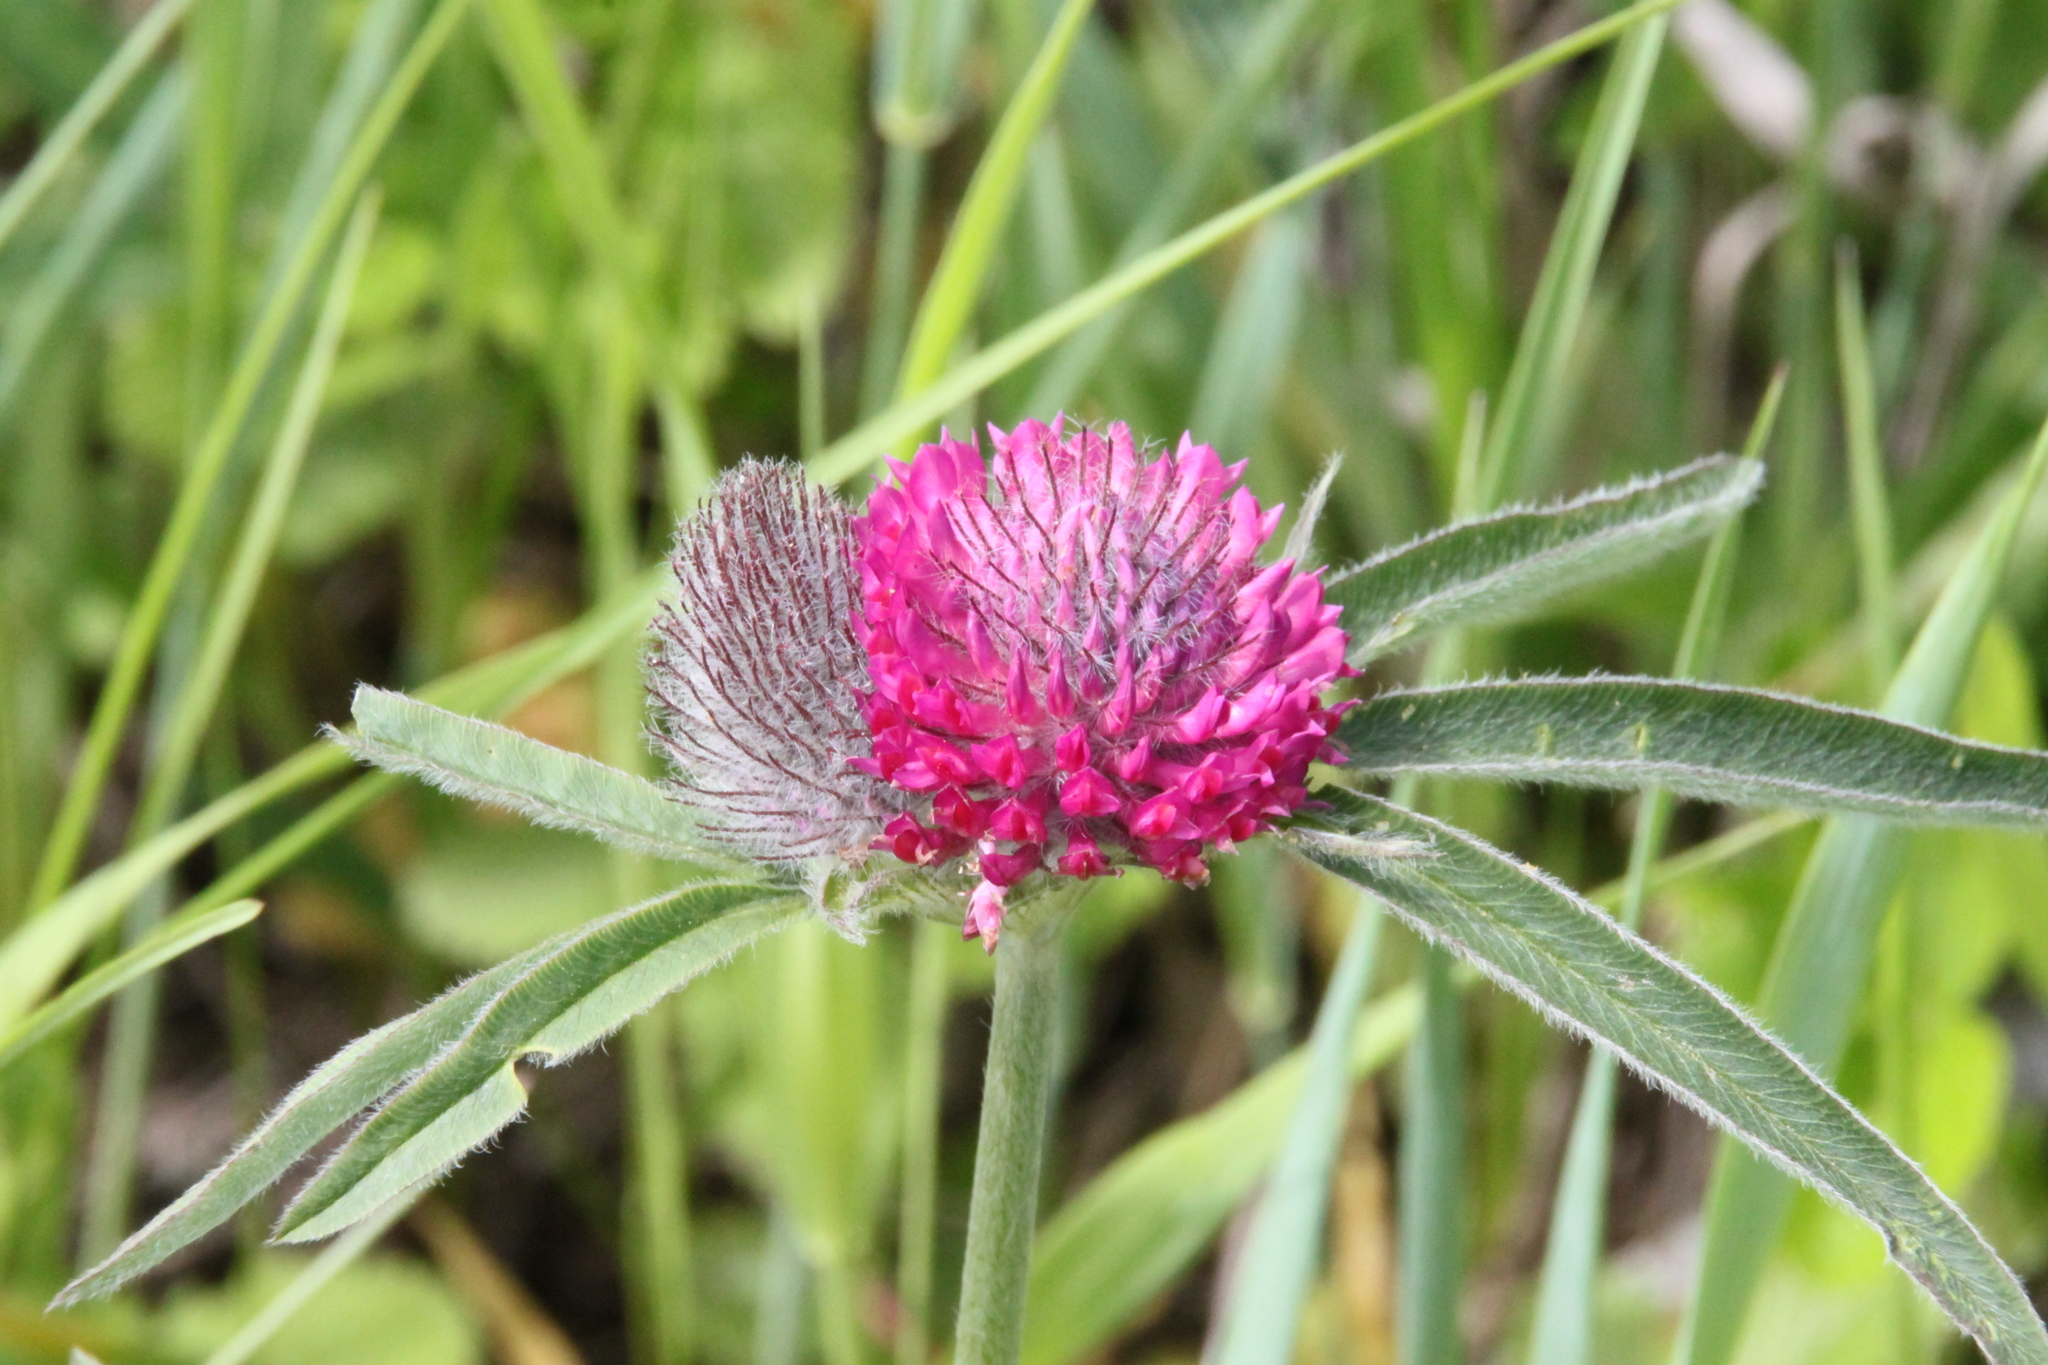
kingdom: Plantae
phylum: Tracheophyta
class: Magnoliopsida
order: Fabales
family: Fabaceae
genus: Trifolium
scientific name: Trifolium alpestre
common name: Owl-head clover
